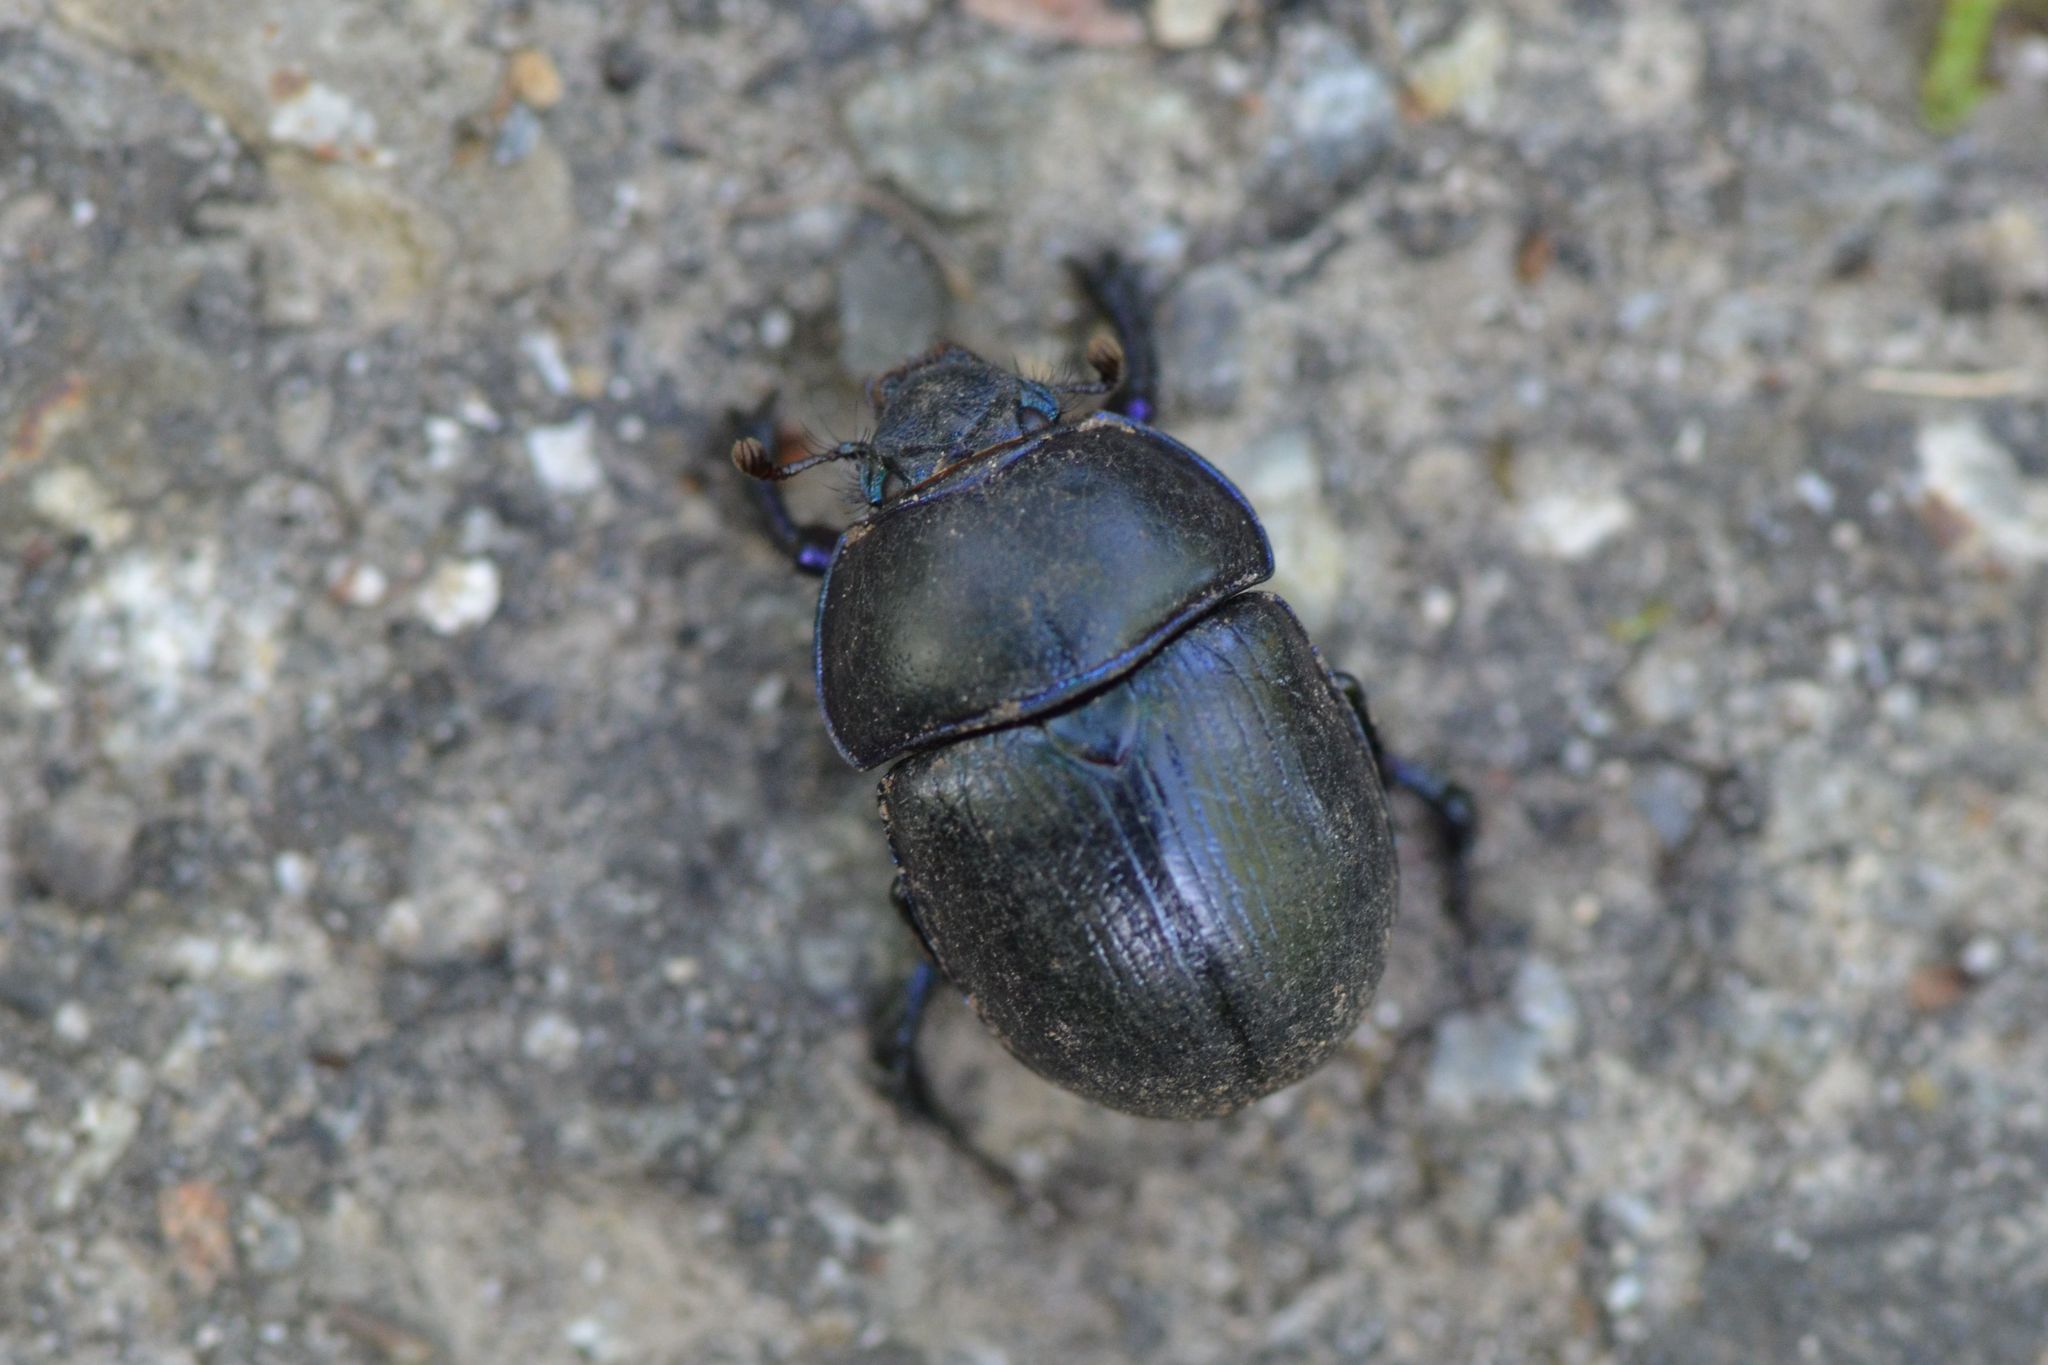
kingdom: Animalia
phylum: Arthropoda
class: Insecta
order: Coleoptera
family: Geotrupidae
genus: Anoplotrupes
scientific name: Anoplotrupes stercorosus
